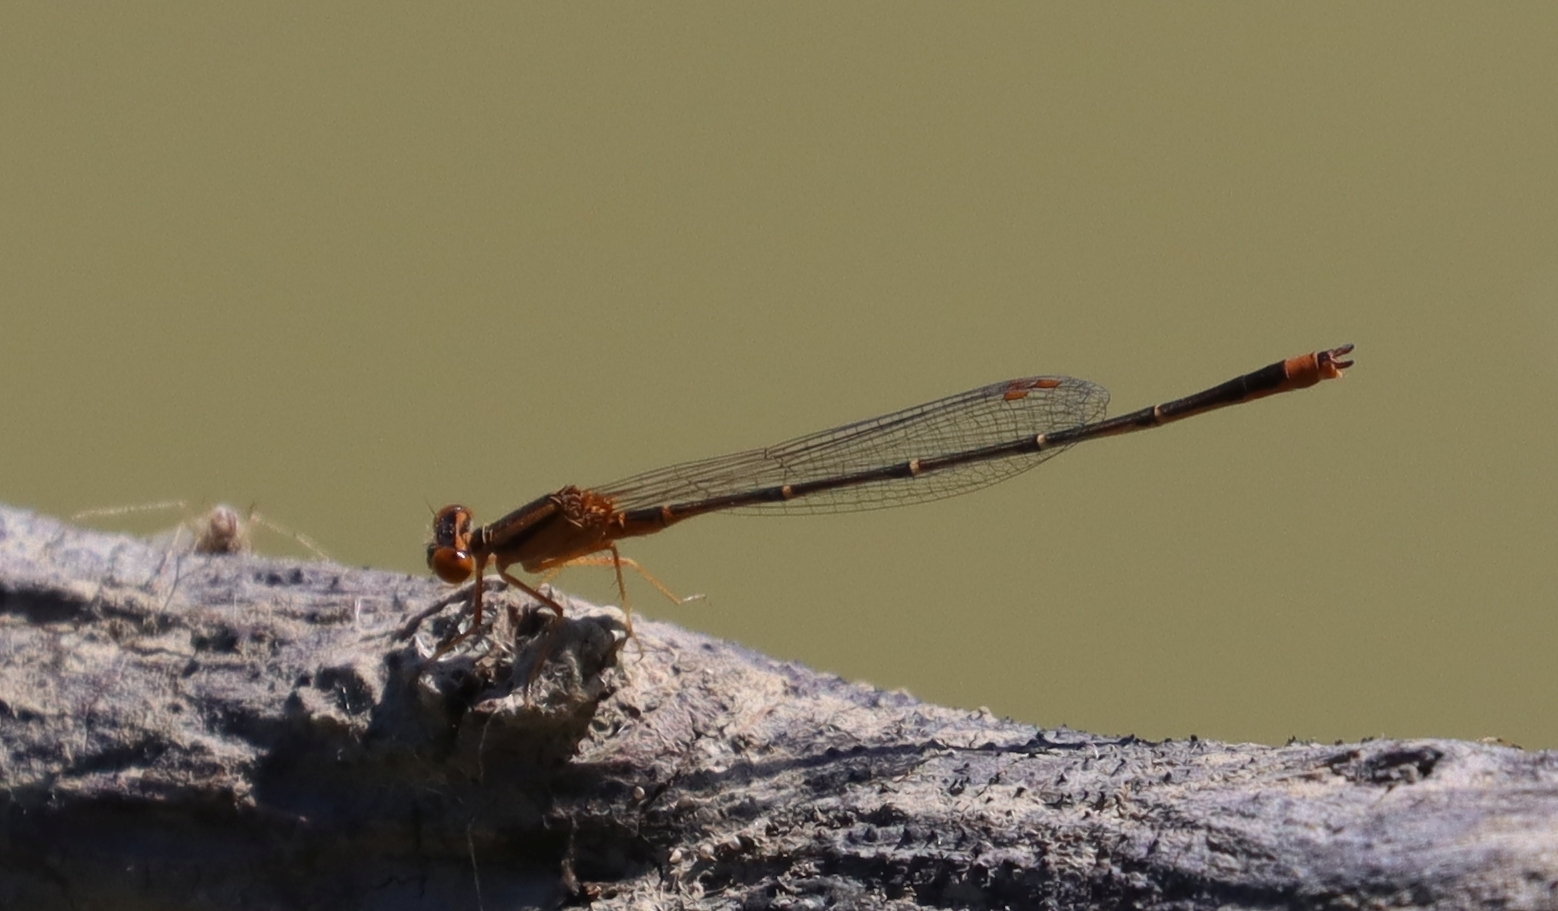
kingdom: Animalia
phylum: Arthropoda
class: Insecta
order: Odonata
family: Coenagrionidae
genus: Enallagma
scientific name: Enallagma signatum
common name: Orange bluet
